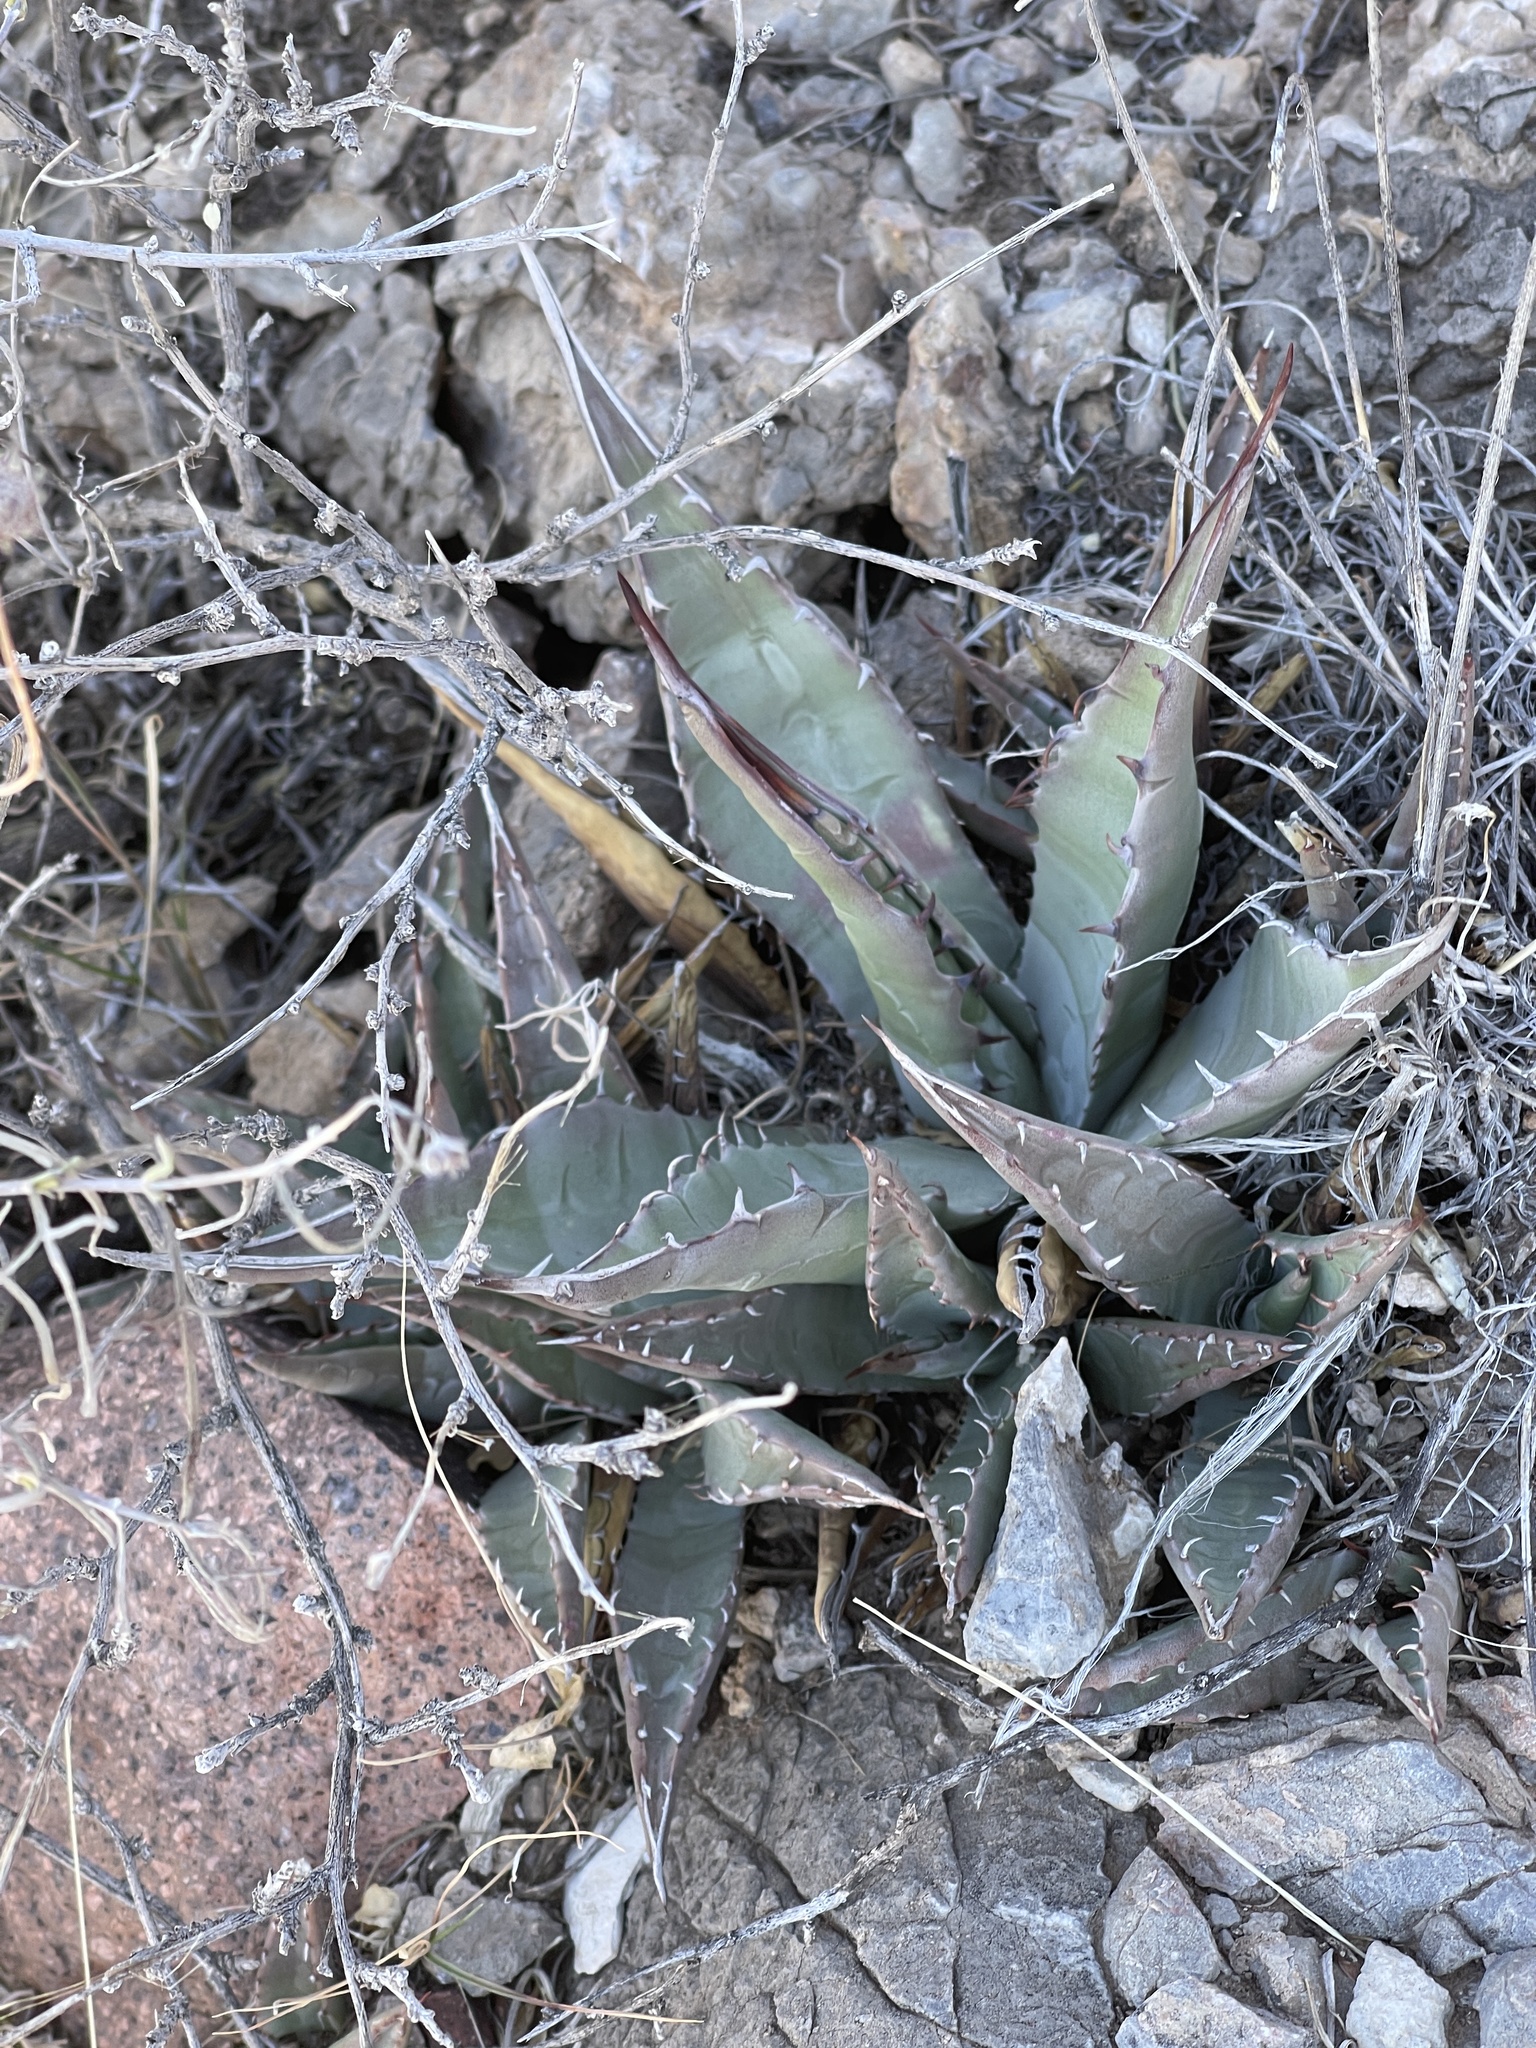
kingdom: Plantae
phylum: Tracheophyta
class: Liliopsida
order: Asparagales
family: Asparagaceae
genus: Agave
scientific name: Agave parryi
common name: Parry's agave
